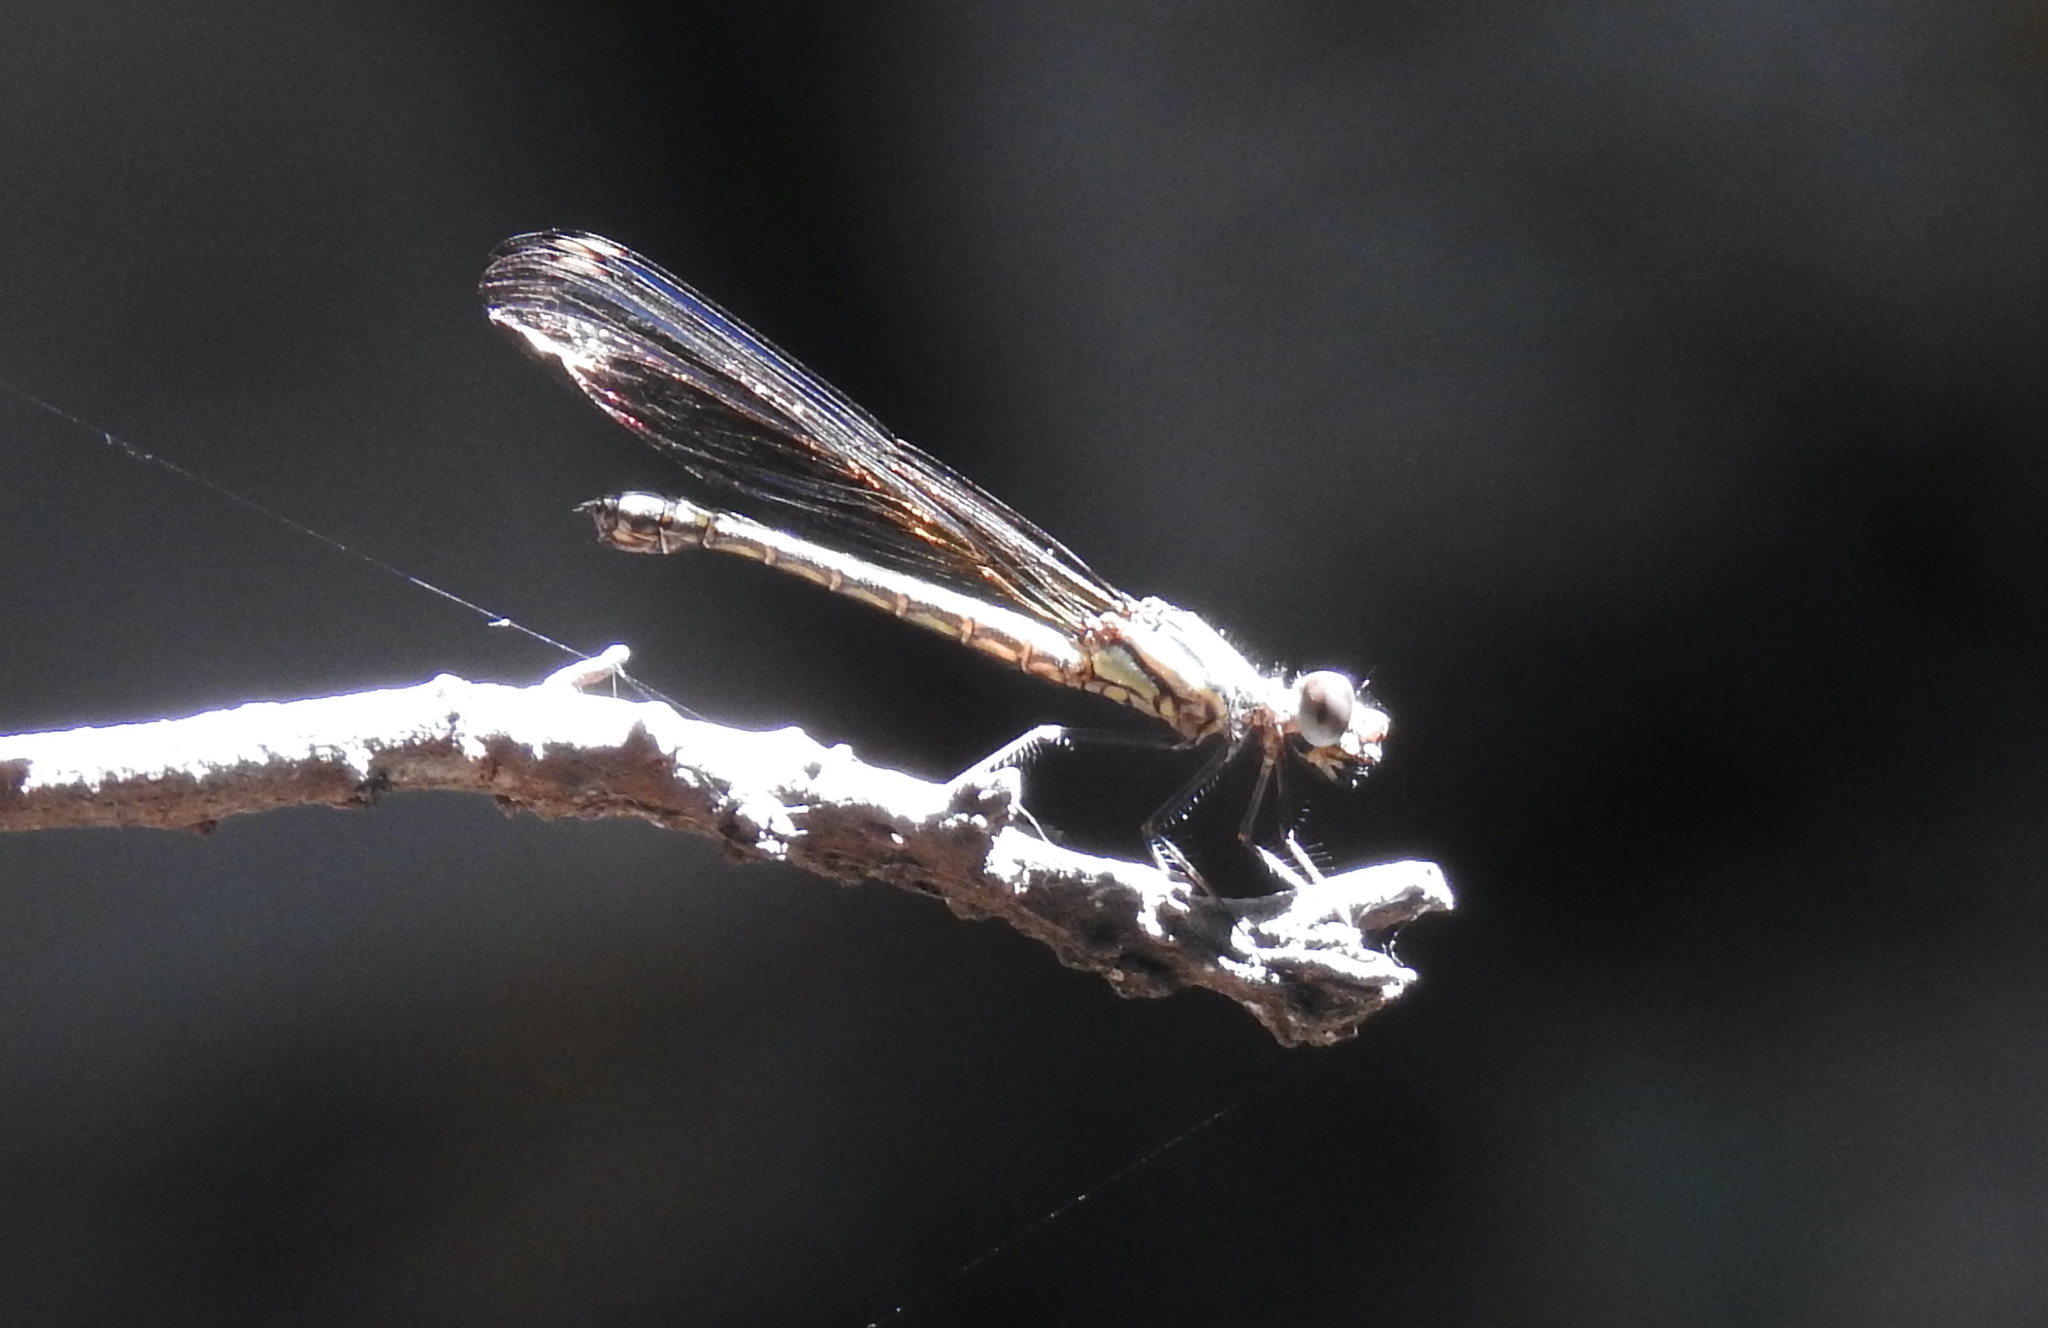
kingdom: Animalia
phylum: Arthropoda
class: Insecta
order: Odonata
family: Chlorocyphidae
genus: Platycypha
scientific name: Platycypha caligata
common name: Dancing jewel
